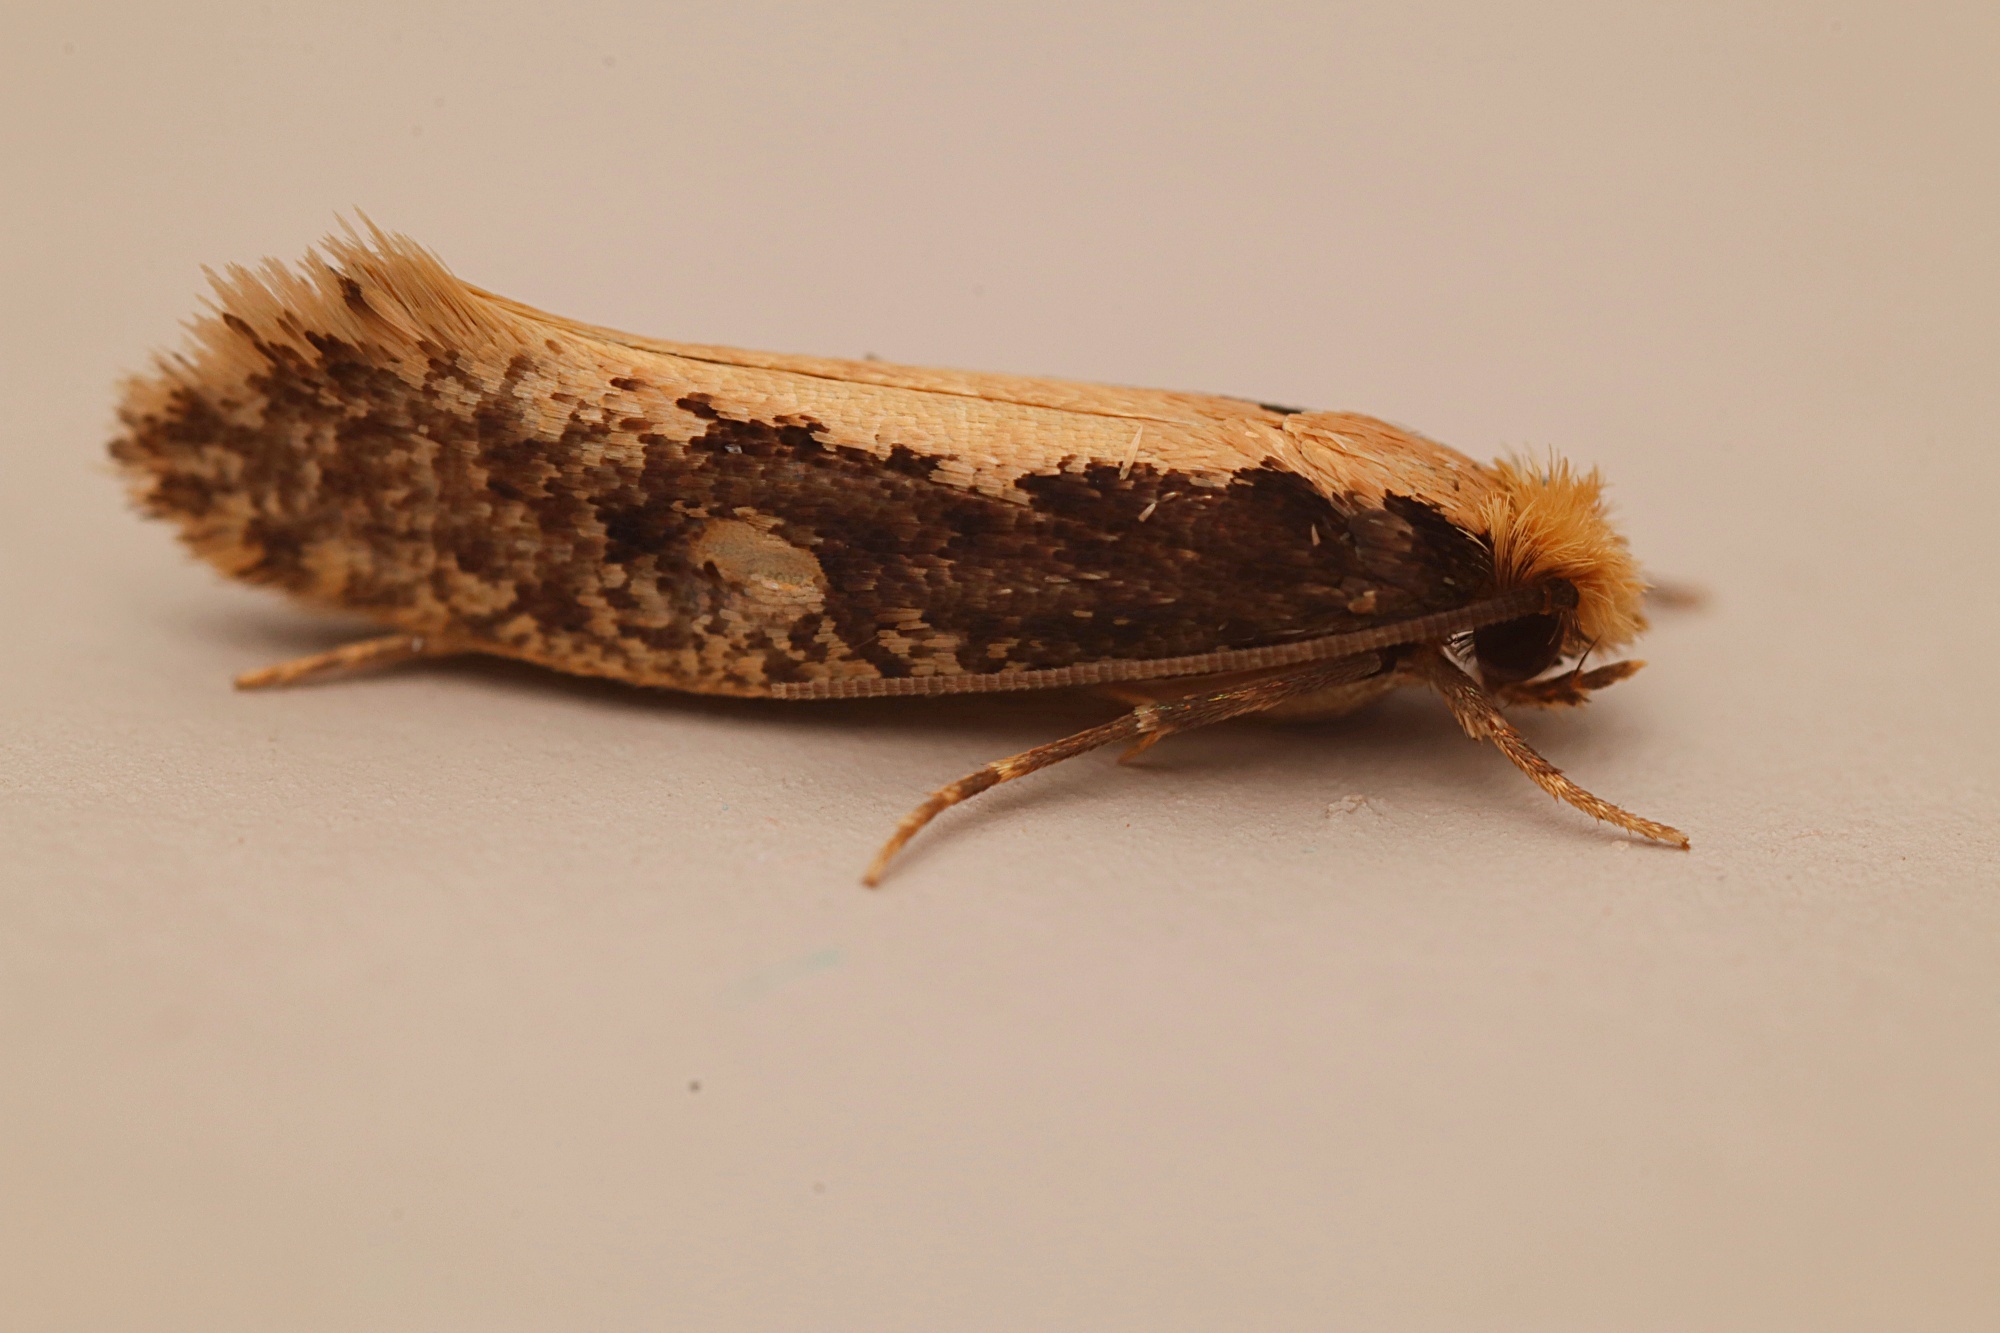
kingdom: Animalia
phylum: Arthropoda
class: Insecta
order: Lepidoptera
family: Tineidae
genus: Monopis
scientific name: Monopis crocicapitella
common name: Moth
